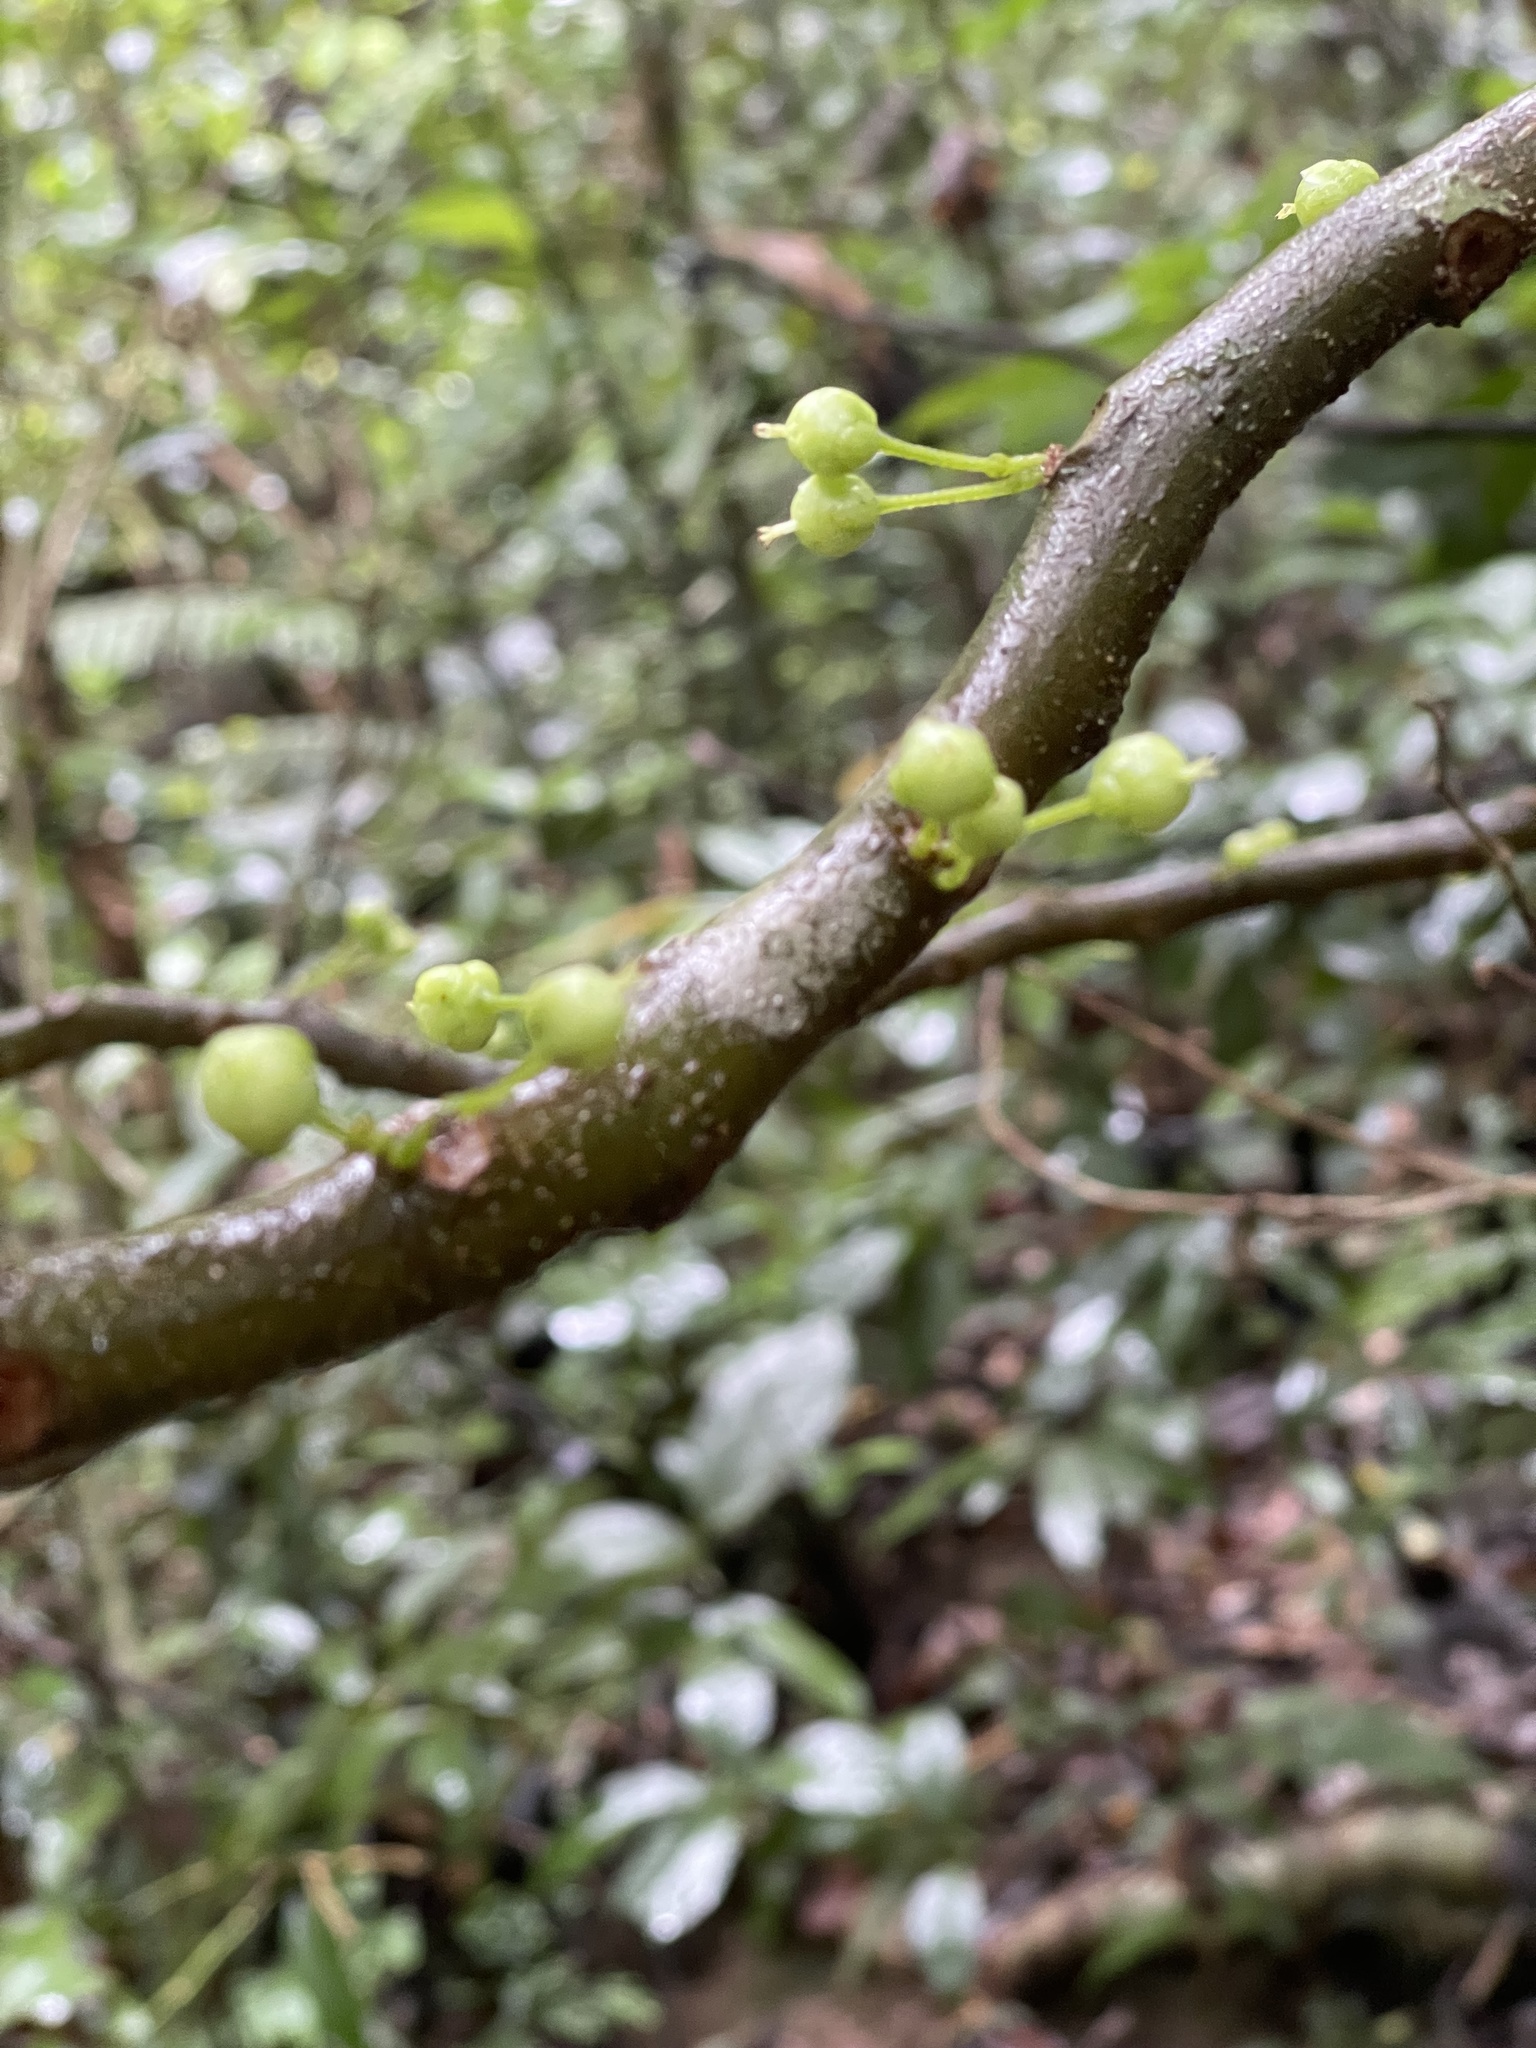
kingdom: Plantae
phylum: Tracheophyta
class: Magnoliopsida
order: Ericales
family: Actinidiaceae
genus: Saurauia
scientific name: Saurauia tristyla
